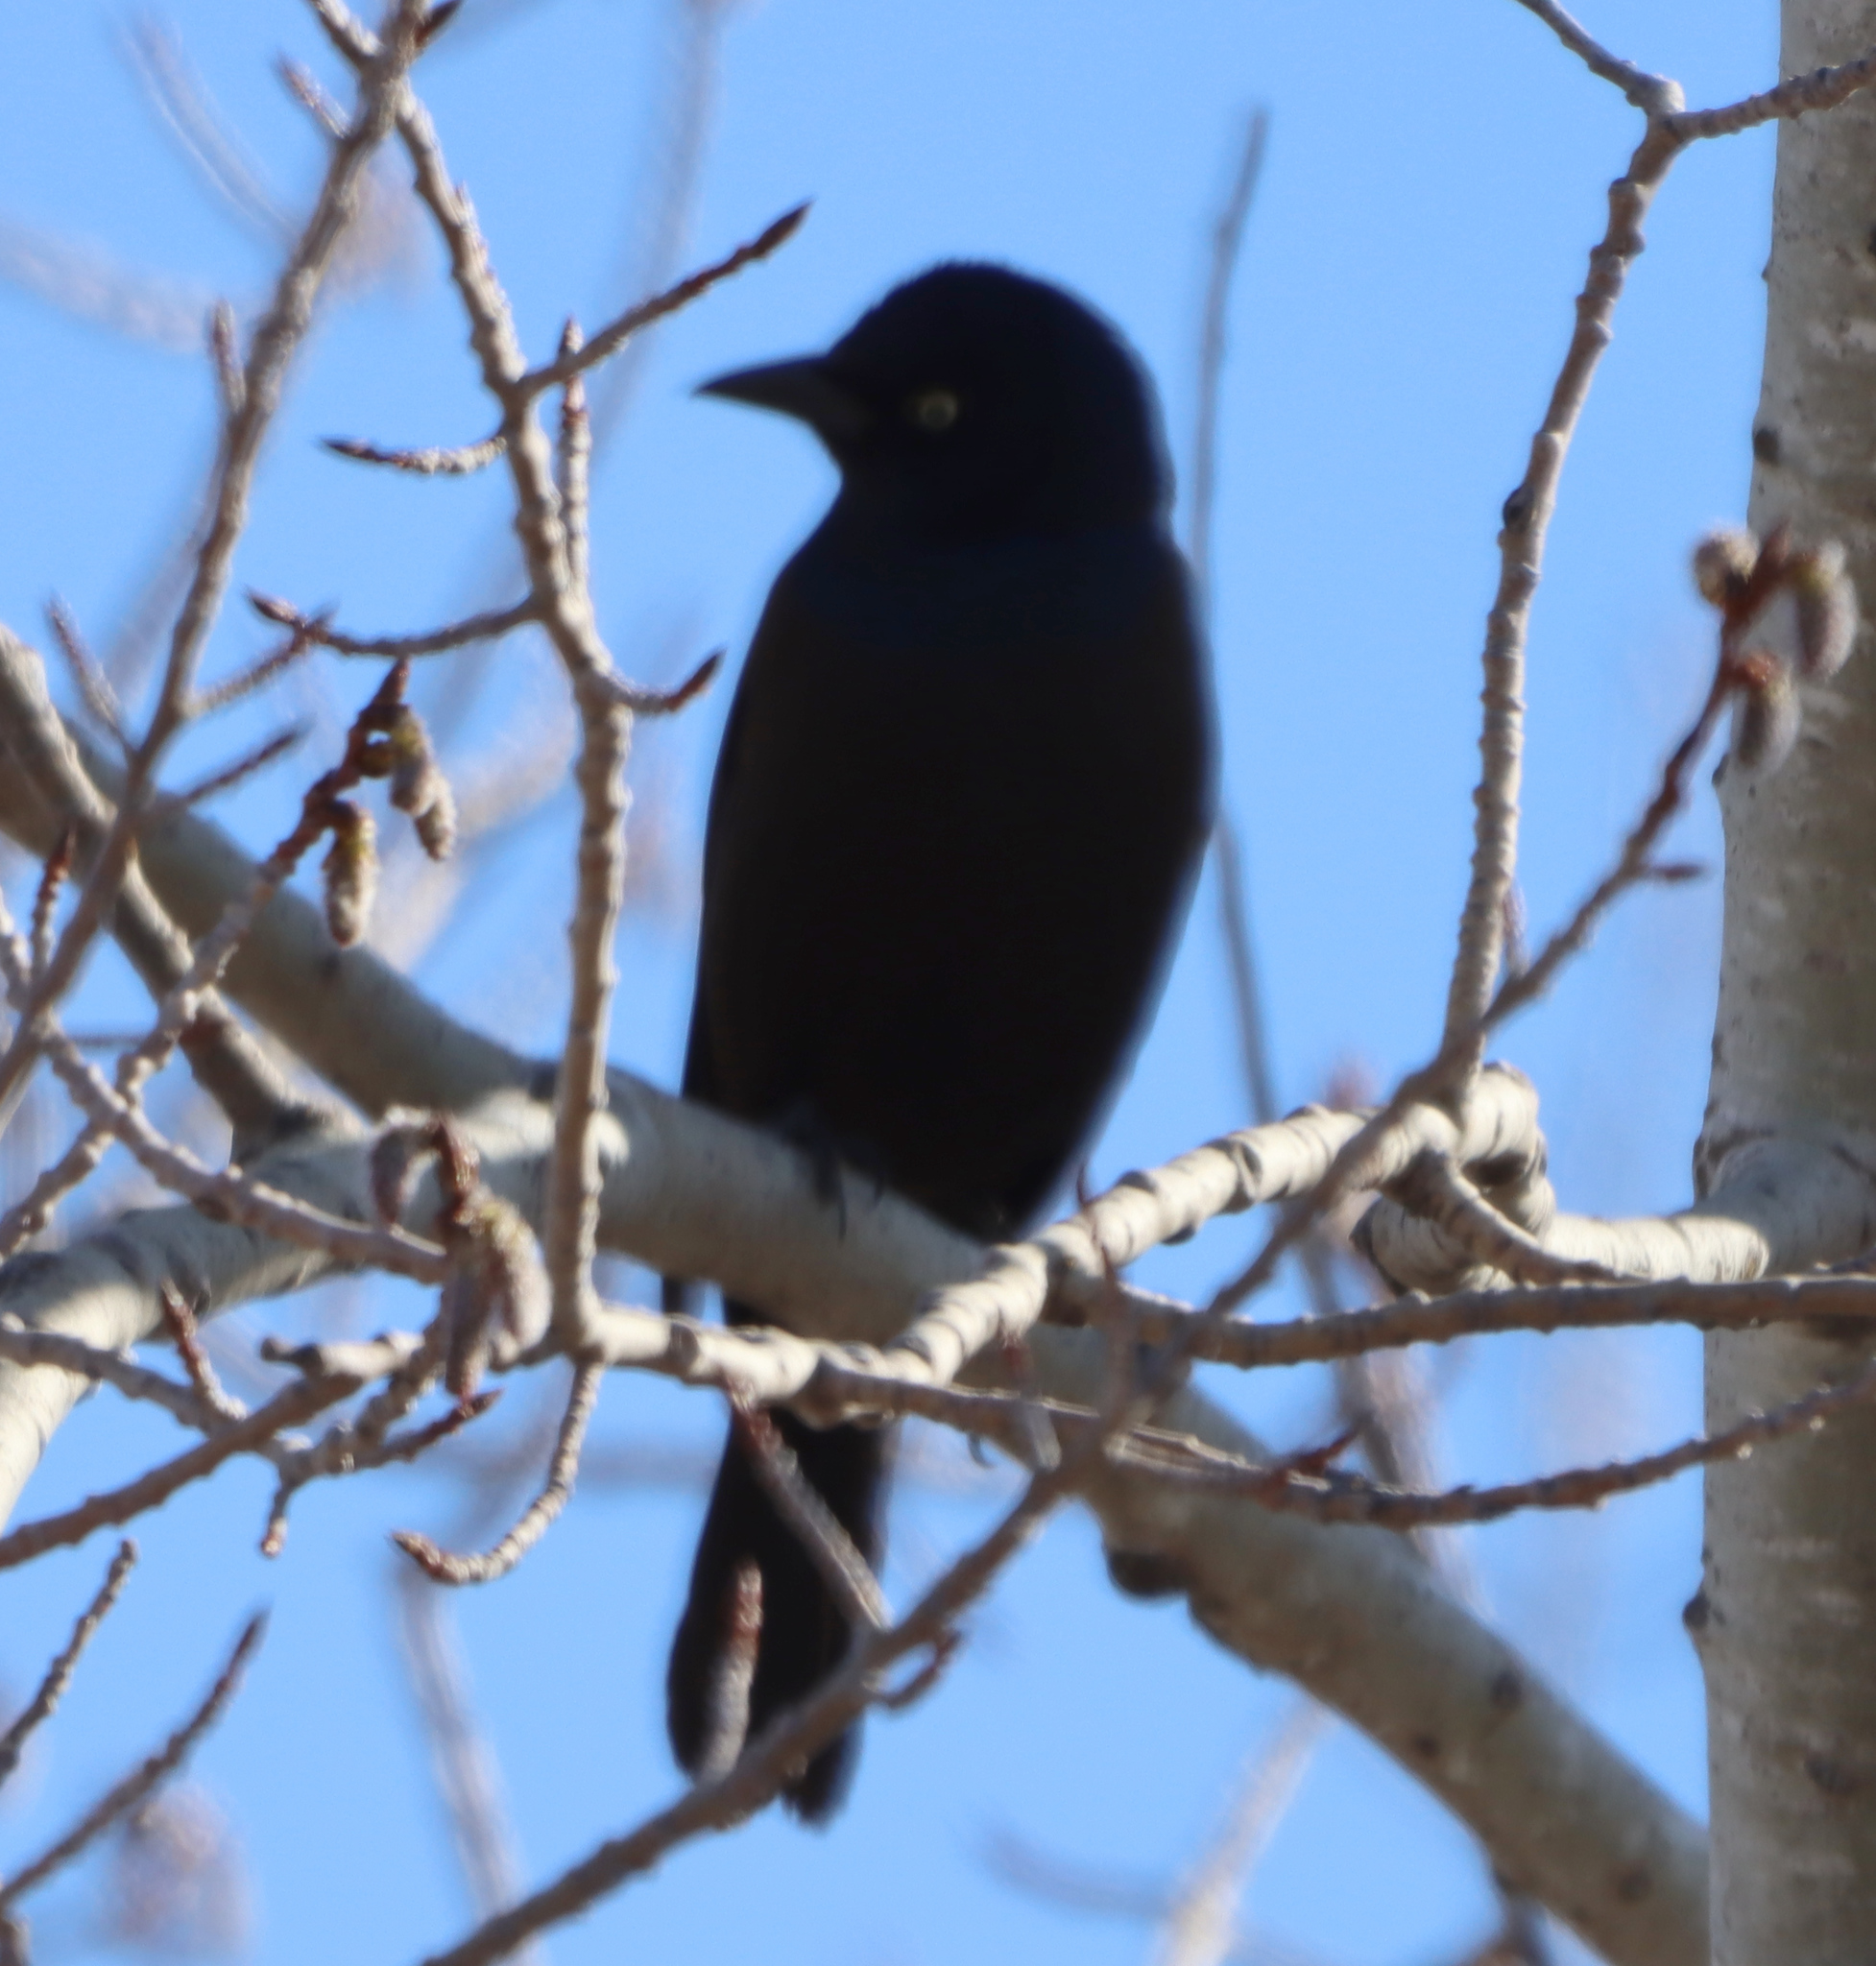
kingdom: Animalia
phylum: Chordata
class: Aves
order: Passeriformes
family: Icteridae
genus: Quiscalus
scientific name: Quiscalus quiscula
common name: Common grackle
